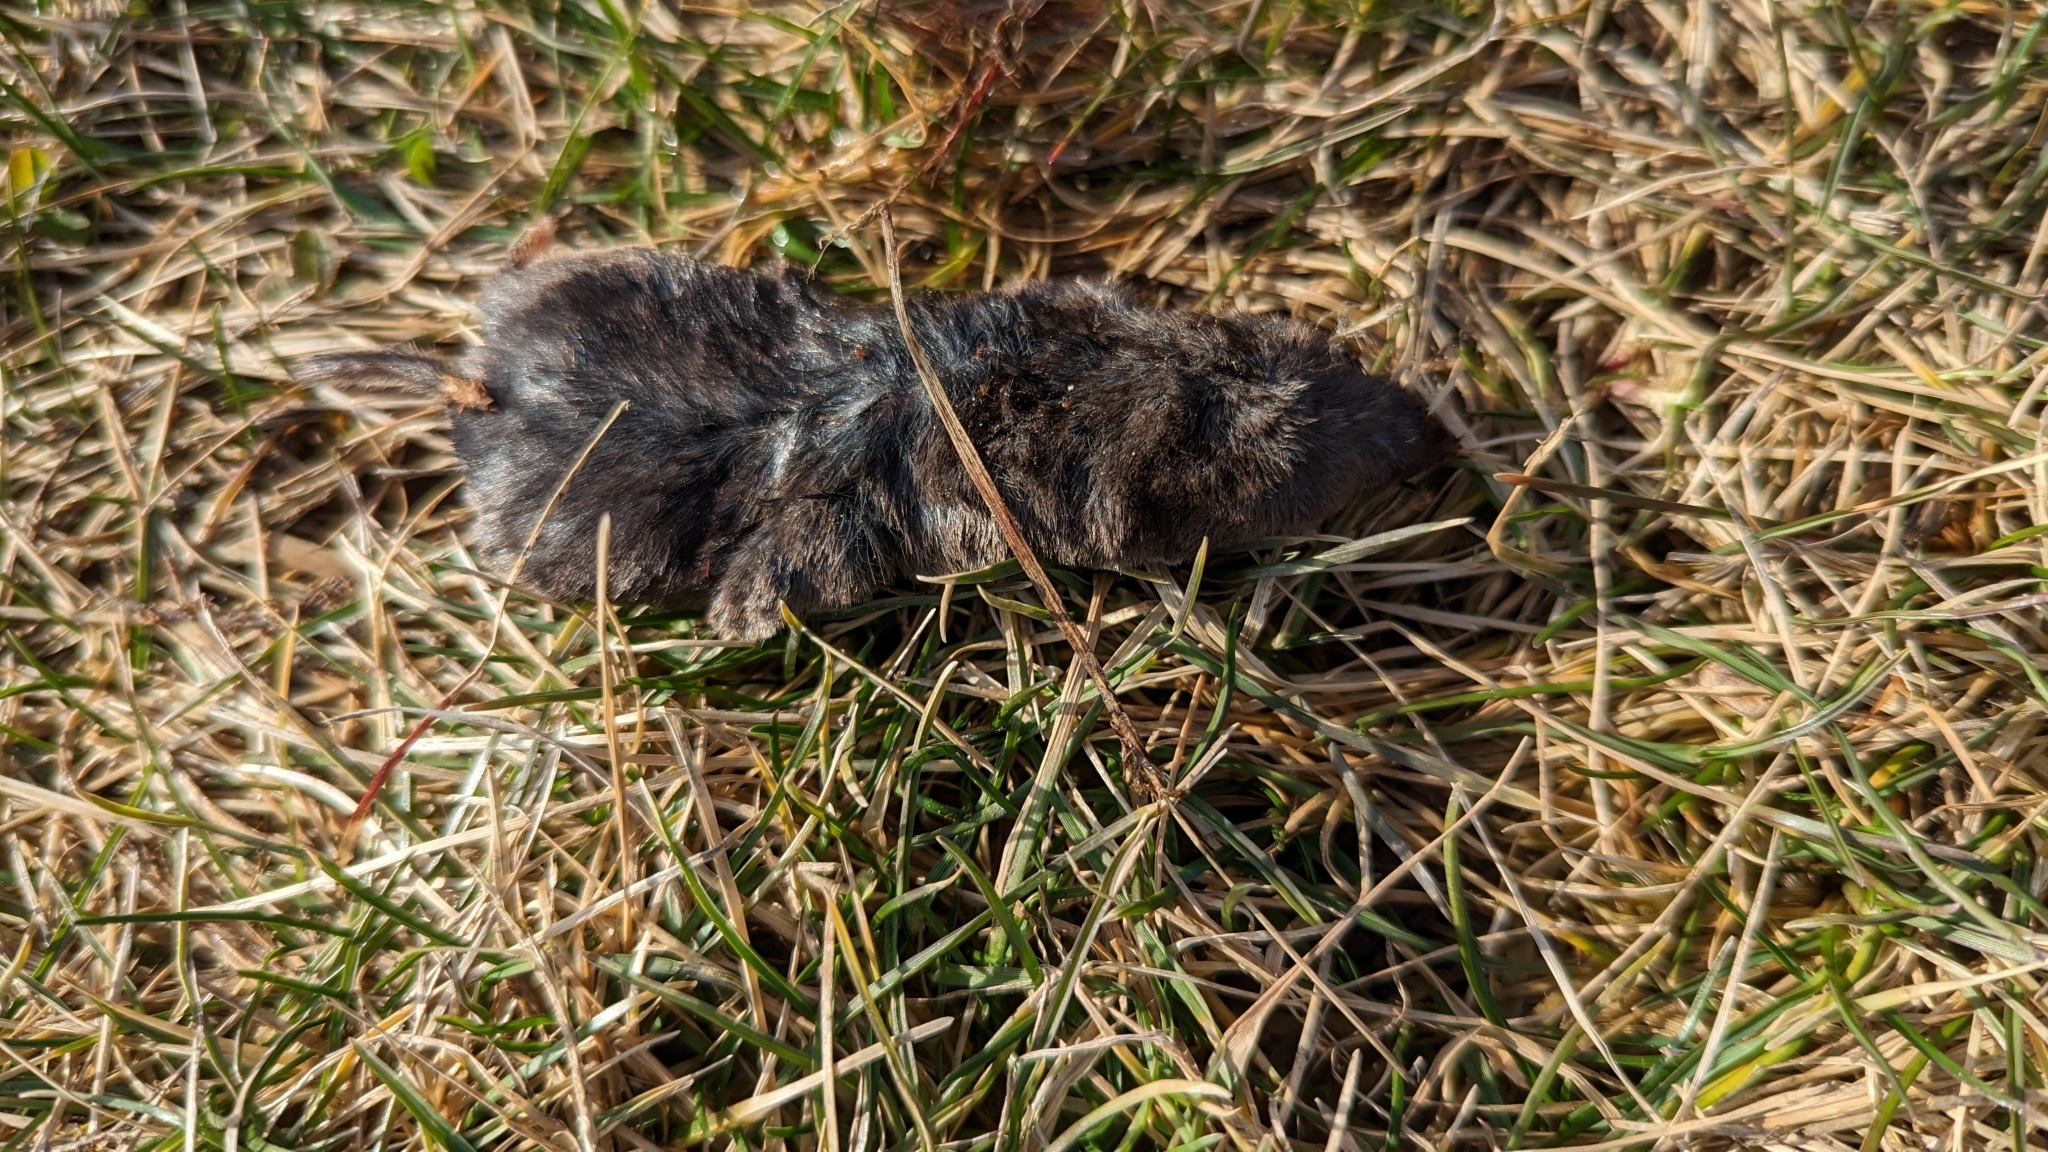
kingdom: Animalia
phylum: Chordata
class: Mammalia
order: Soricomorpha
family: Soricidae
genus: Blarina
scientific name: Blarina brevicauda
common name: Northern short-tailed shrew
